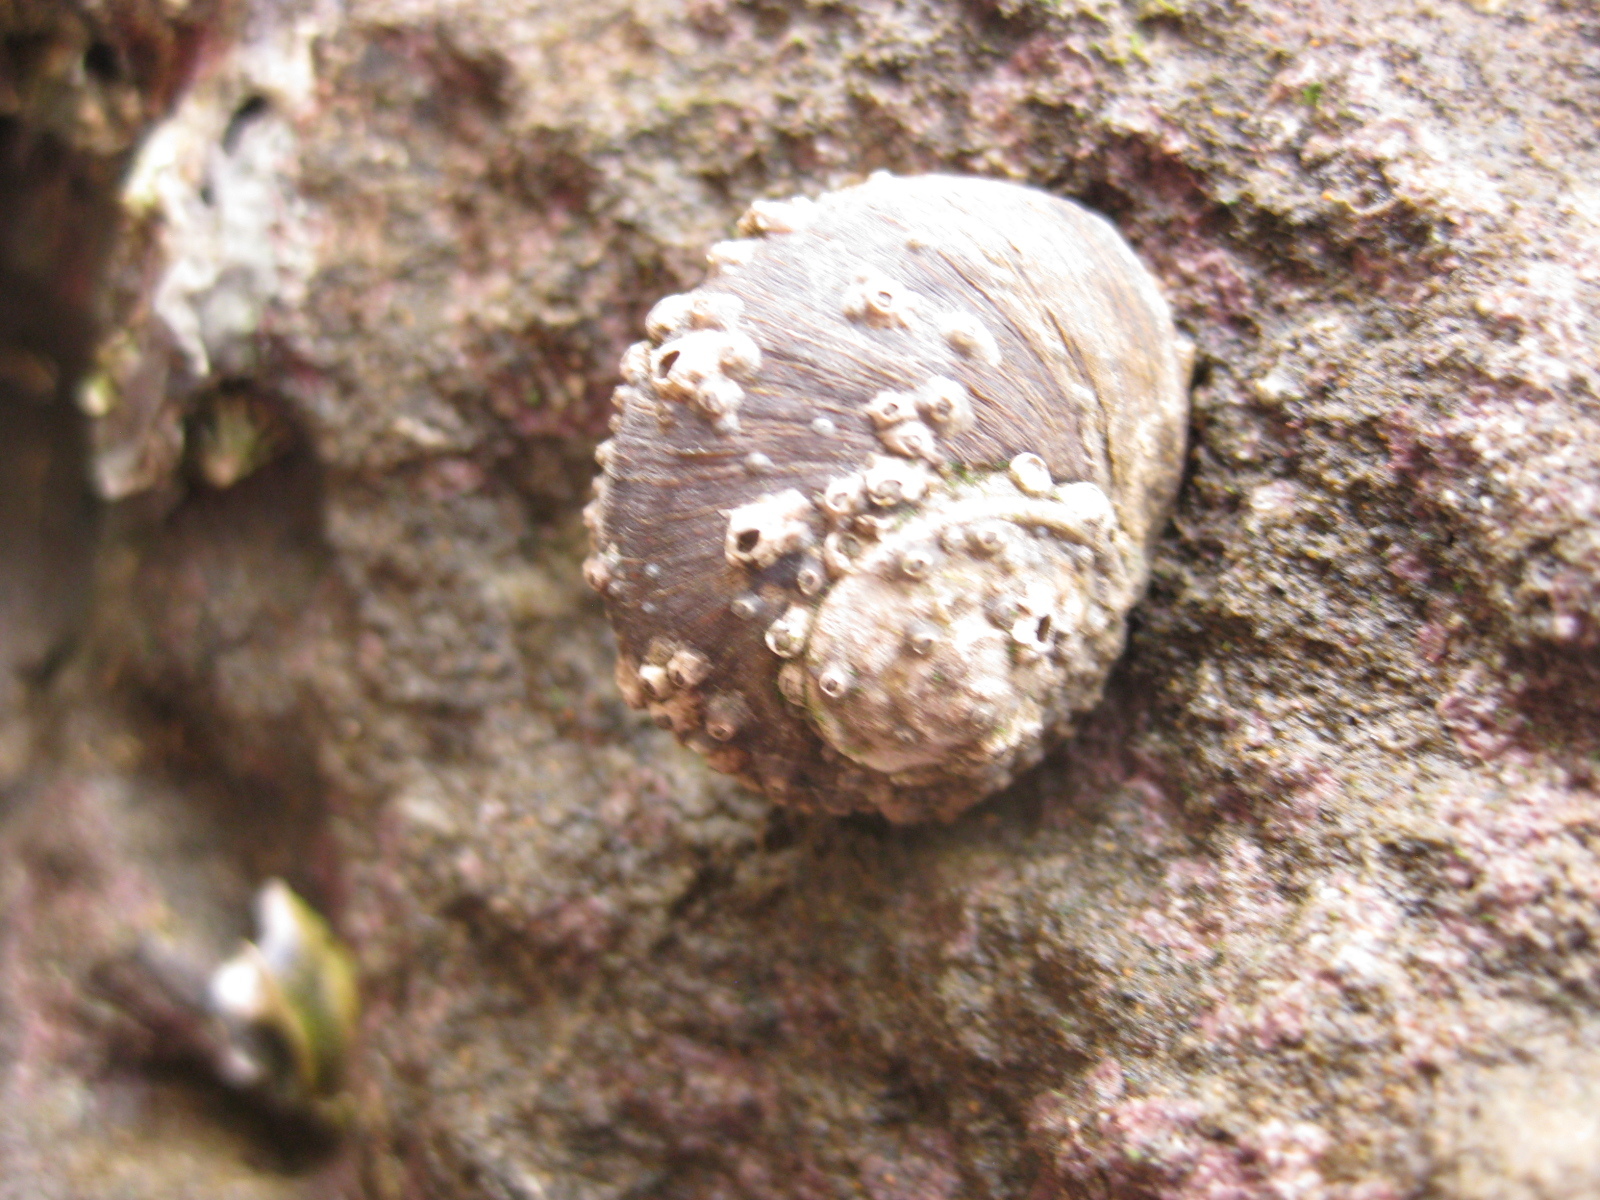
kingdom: Animalia
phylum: Mollusca
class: Gastropoda
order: Trochida
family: Turbinidae
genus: Lunella
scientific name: Lunella smaragda
